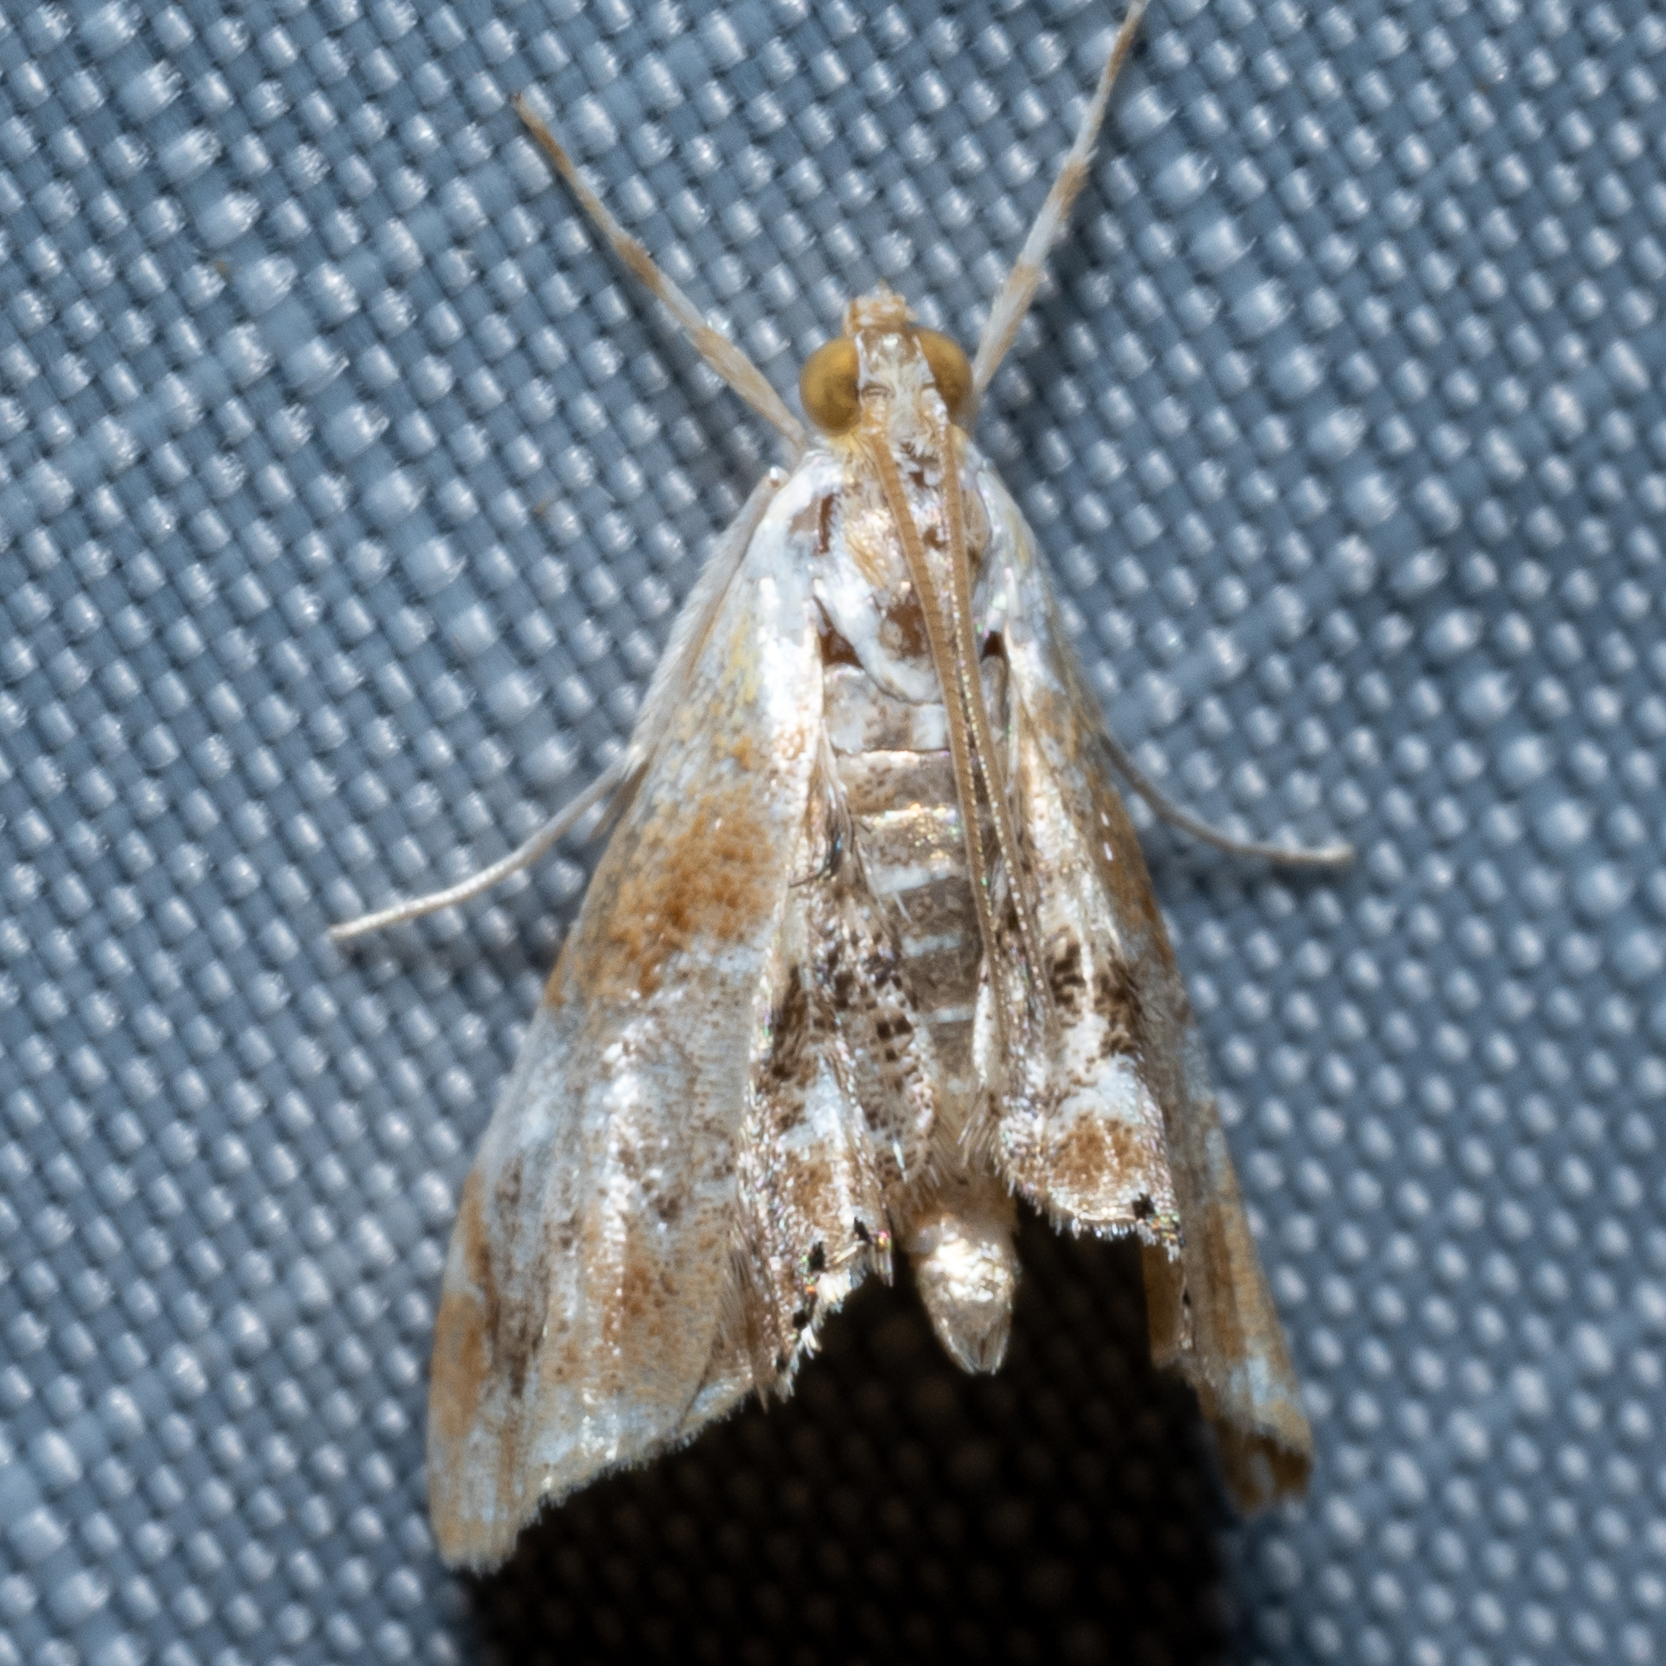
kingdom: Animalia
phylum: Arthropoda
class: Insecta
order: Lepidoptera
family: Crambidae
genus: Dicymolomia
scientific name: Dicymolomia julianalis
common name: Julia's dicymolomia moth
